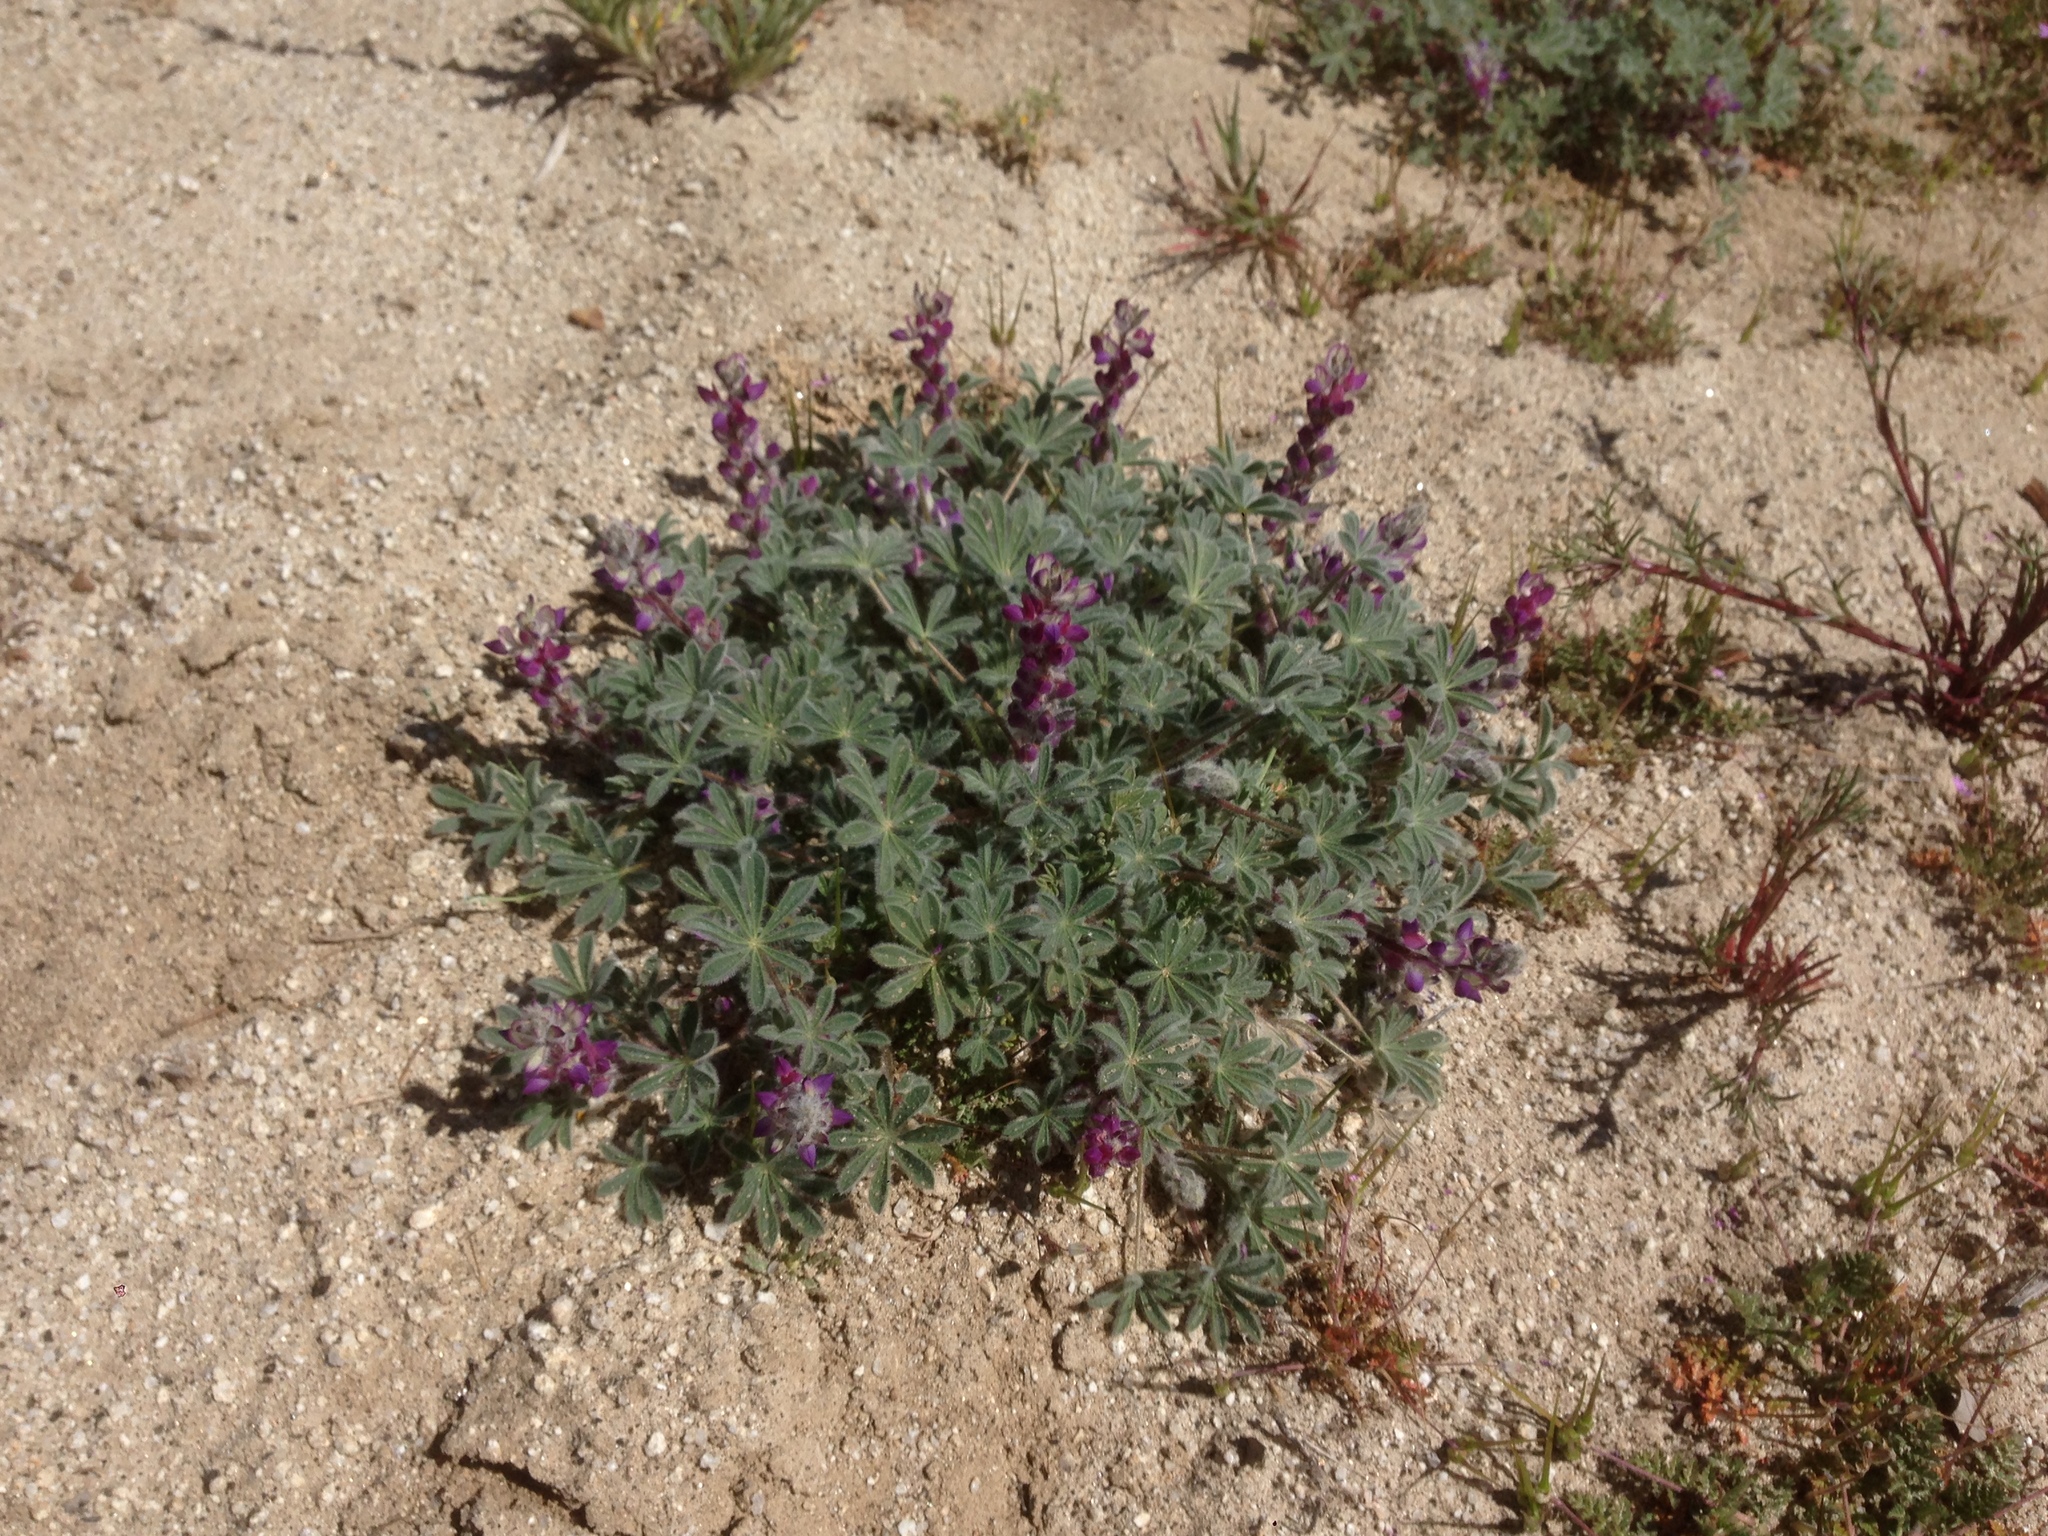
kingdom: Plantae
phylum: Tracheophyta
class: Magnoliopsida
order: Fabales
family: Fabaceae
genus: Lupinus
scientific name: Lupinus concinnus
